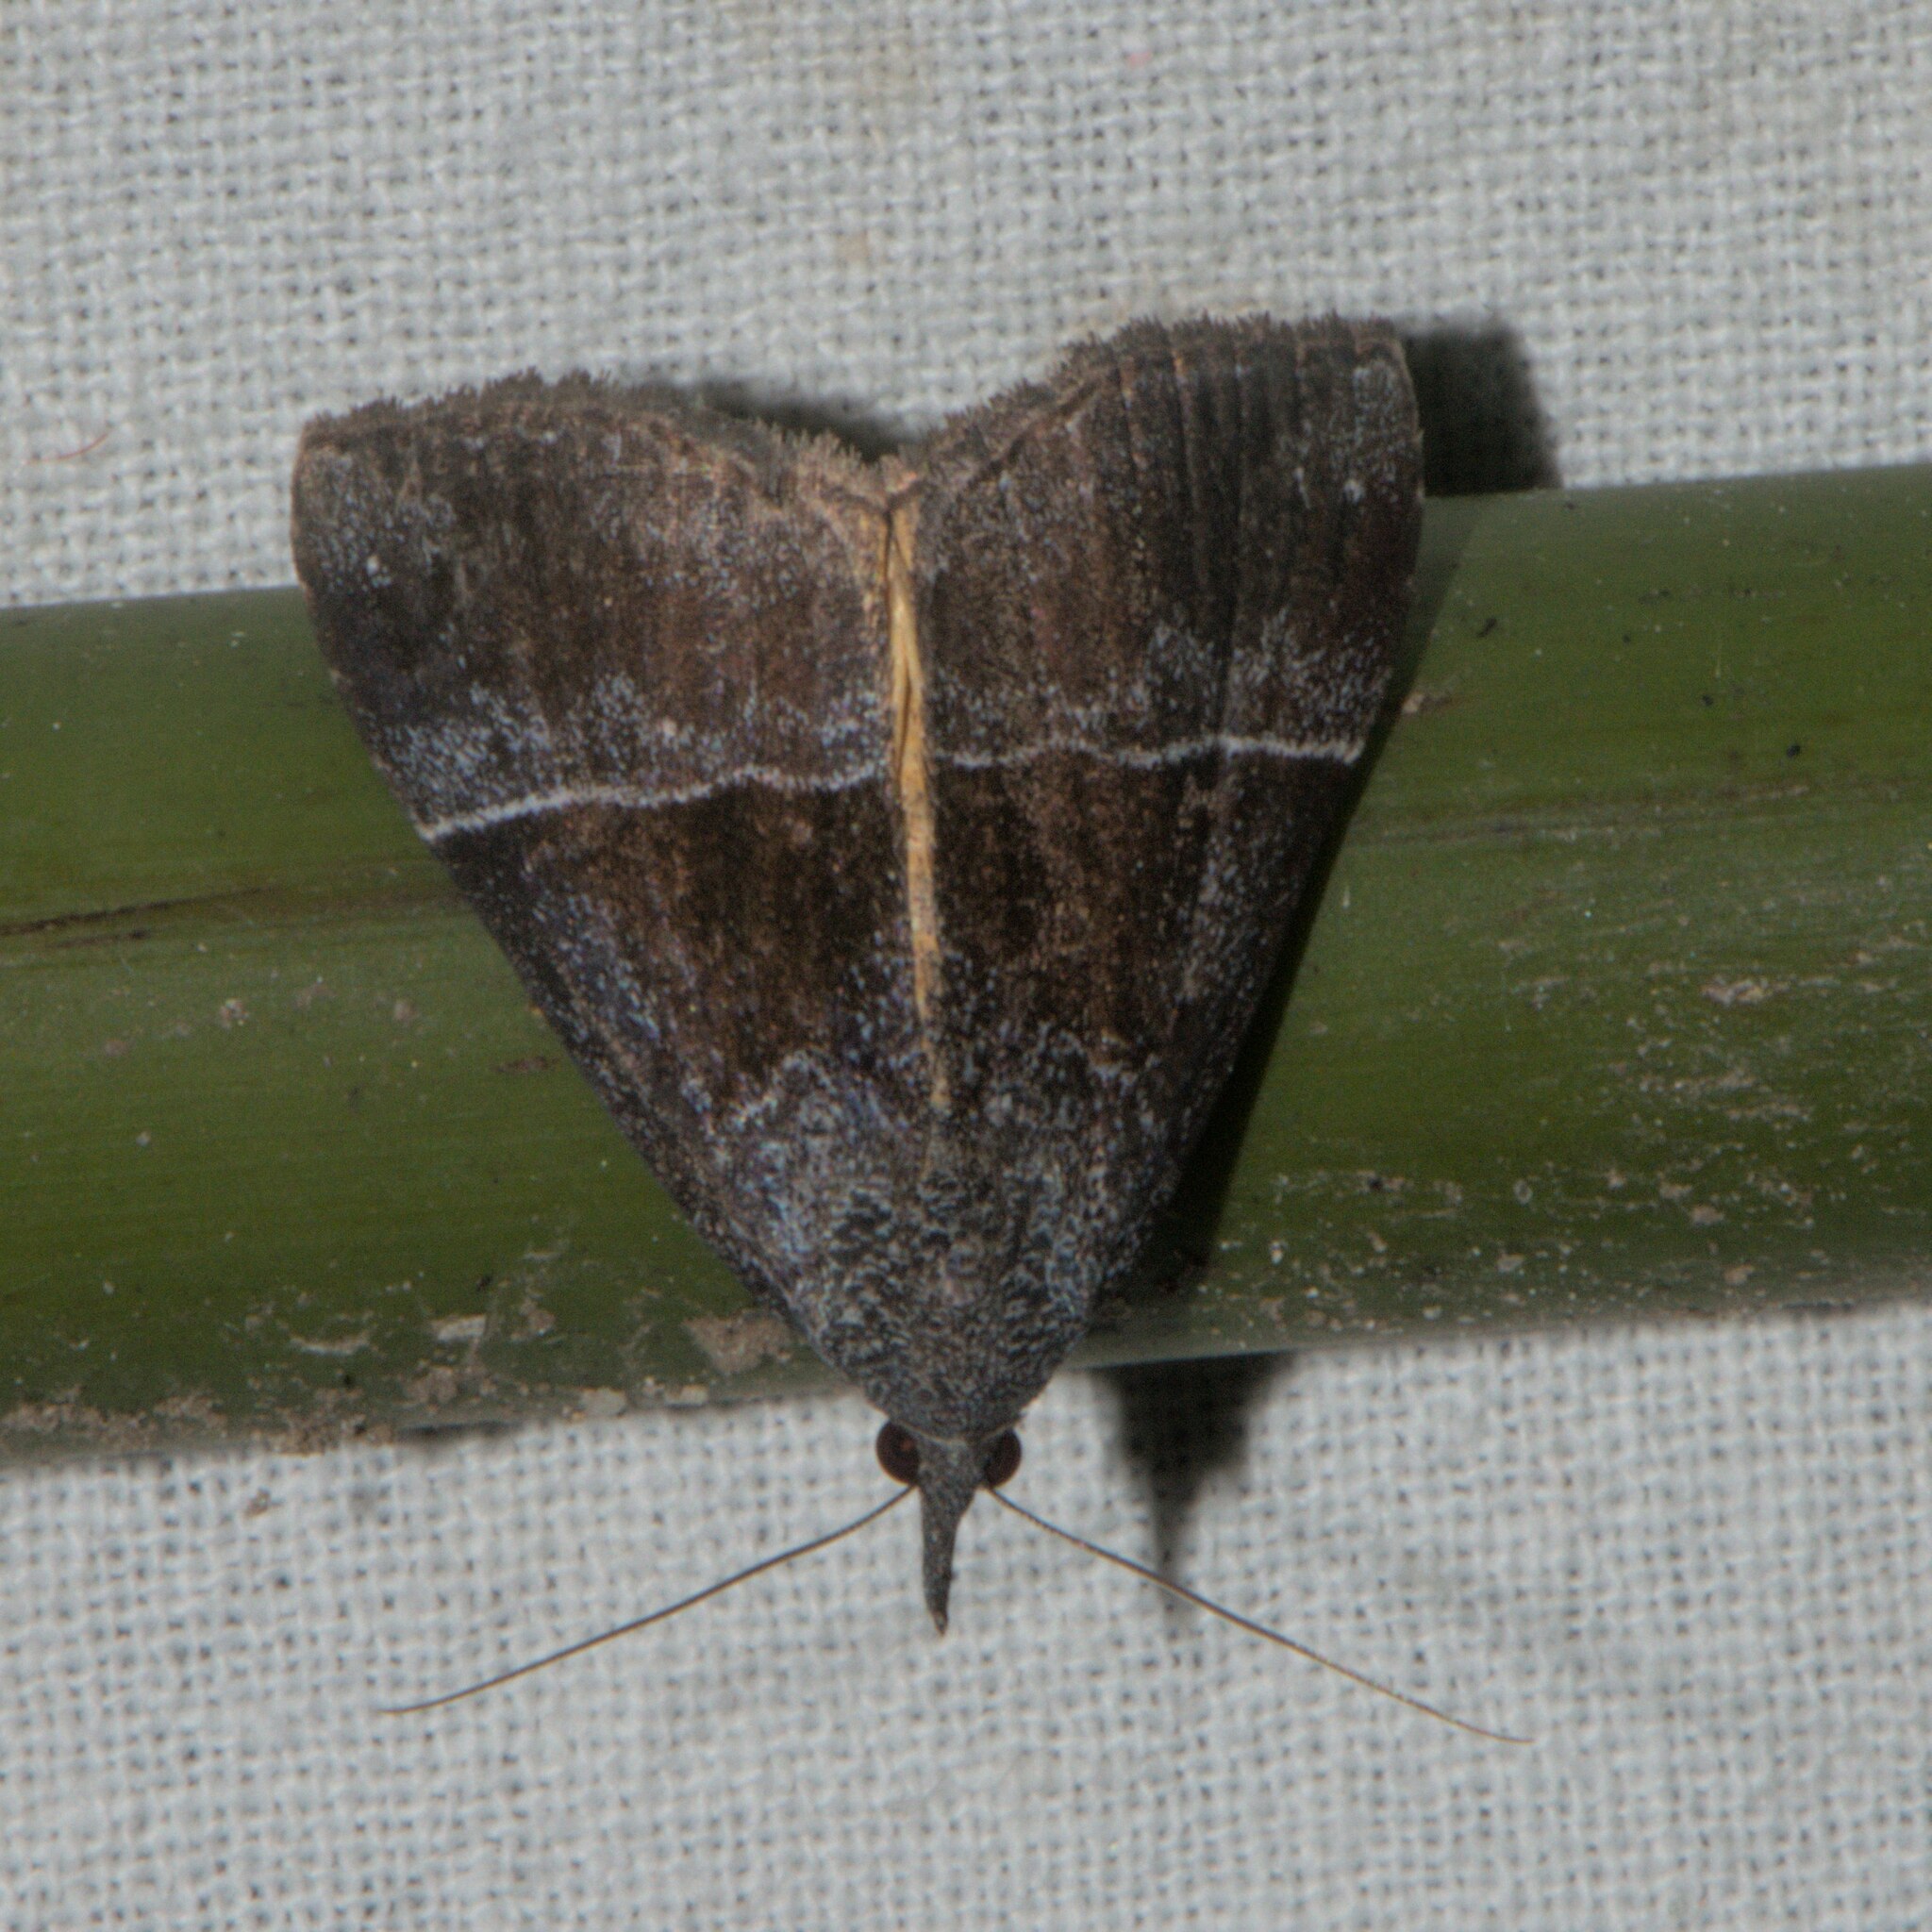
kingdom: Animalia
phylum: Arthropoda
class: Insecta
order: Lepidoptera
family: Erebidae
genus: Hypena
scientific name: Hypena amica
